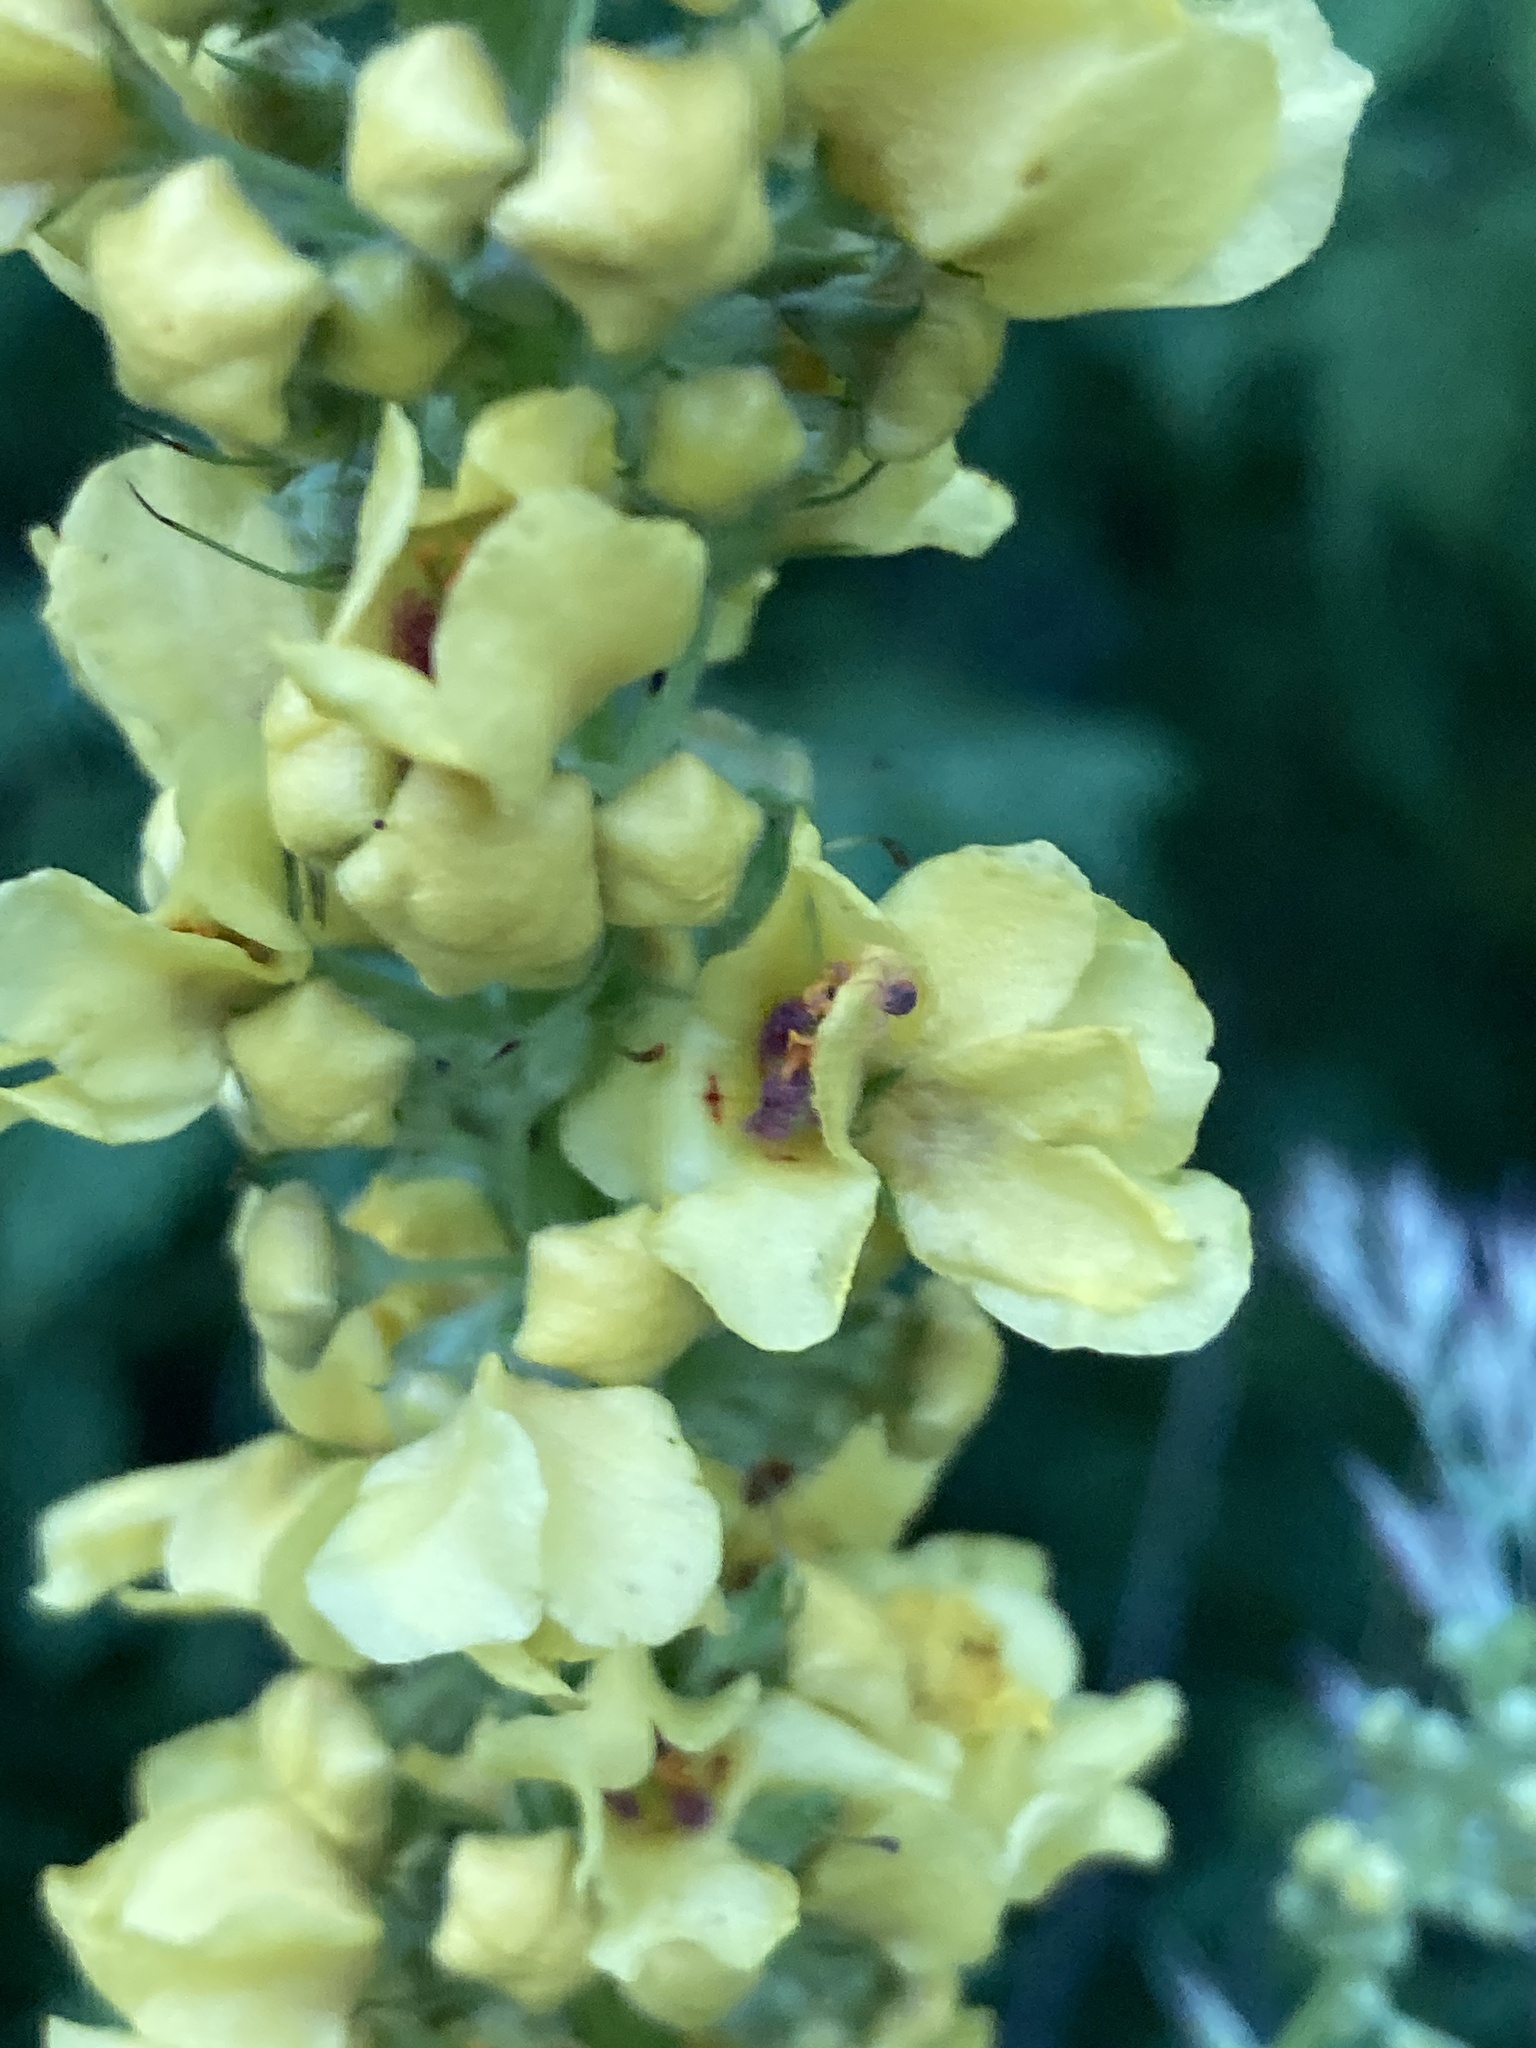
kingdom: Plantae
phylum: Tracheophyta
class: Magnoliopsida
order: Lamiales
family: Scrophulariaceae
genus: Verbascum
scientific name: Verbascum nigrum
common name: Dark mullein
